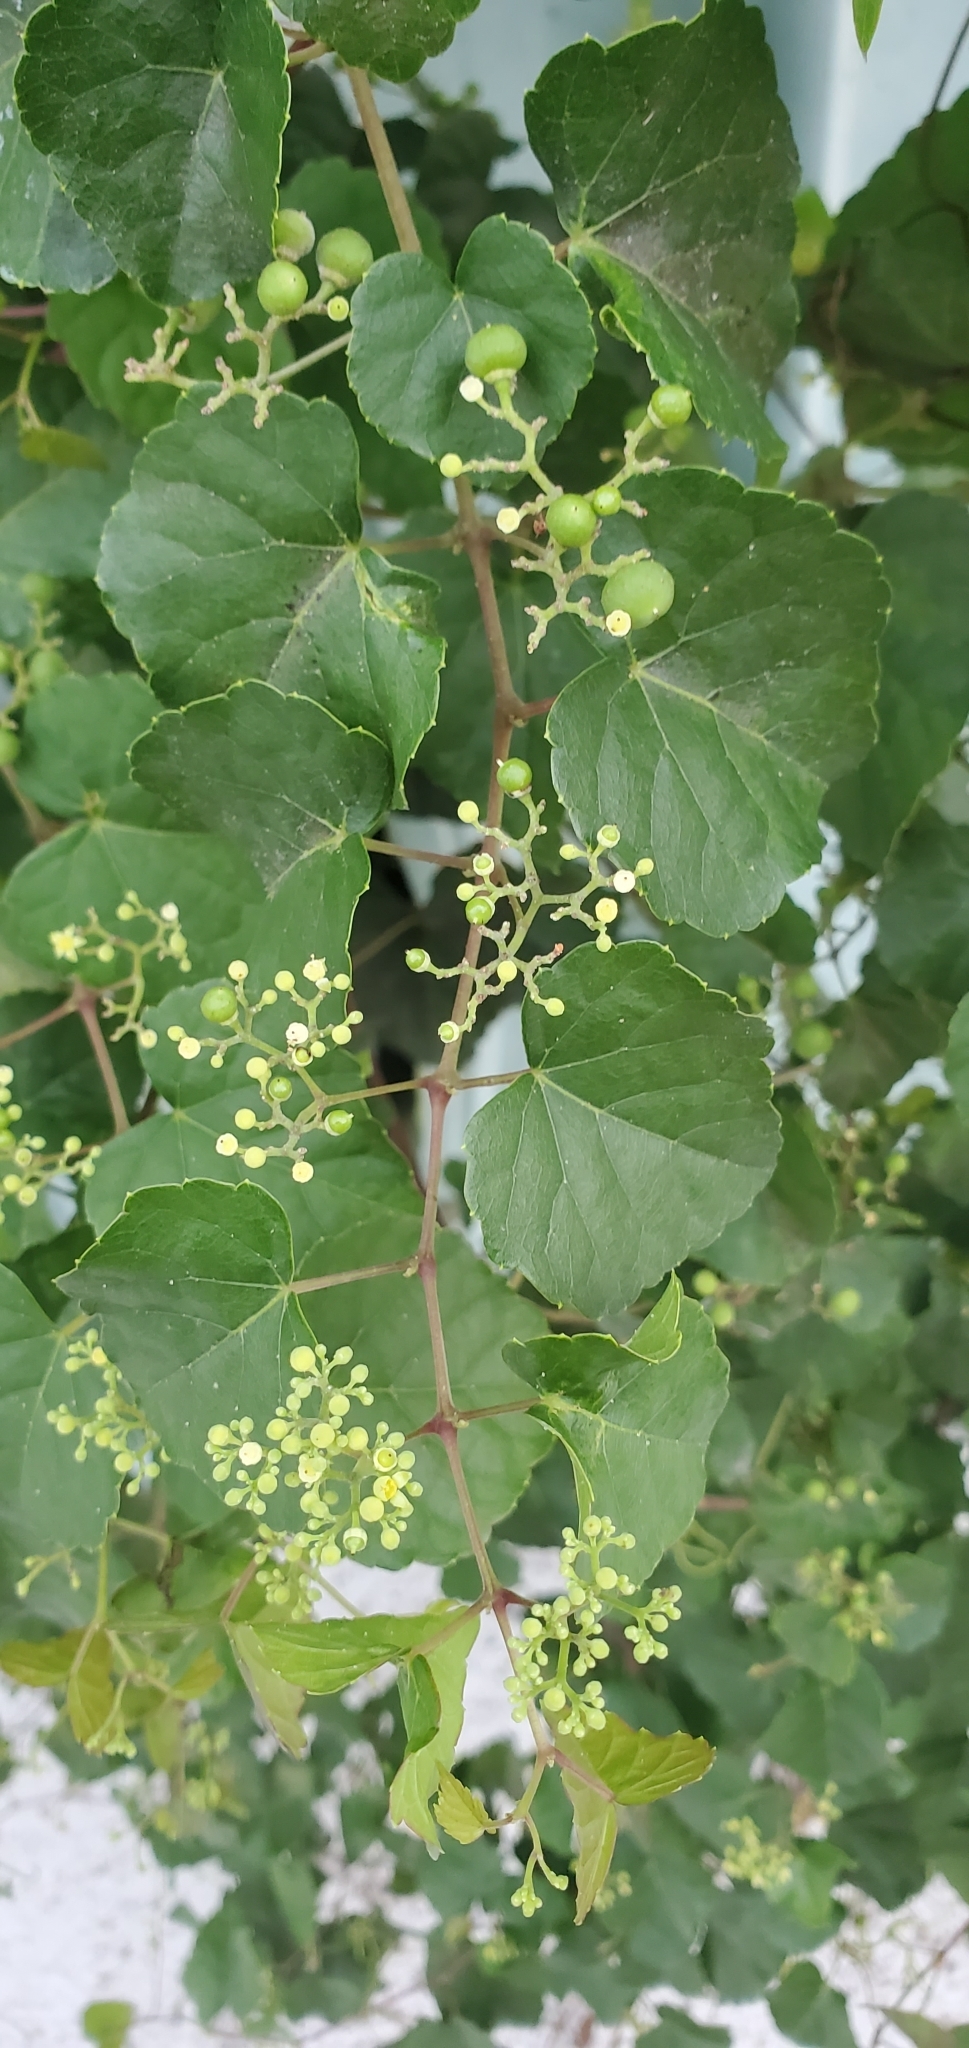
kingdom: Plantae
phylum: Tracheophyta
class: Magnoliopsida
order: Vitales
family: Vitaceae
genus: Ampelopsis
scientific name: Ampelopsis glandulosa
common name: Amur peppervine
